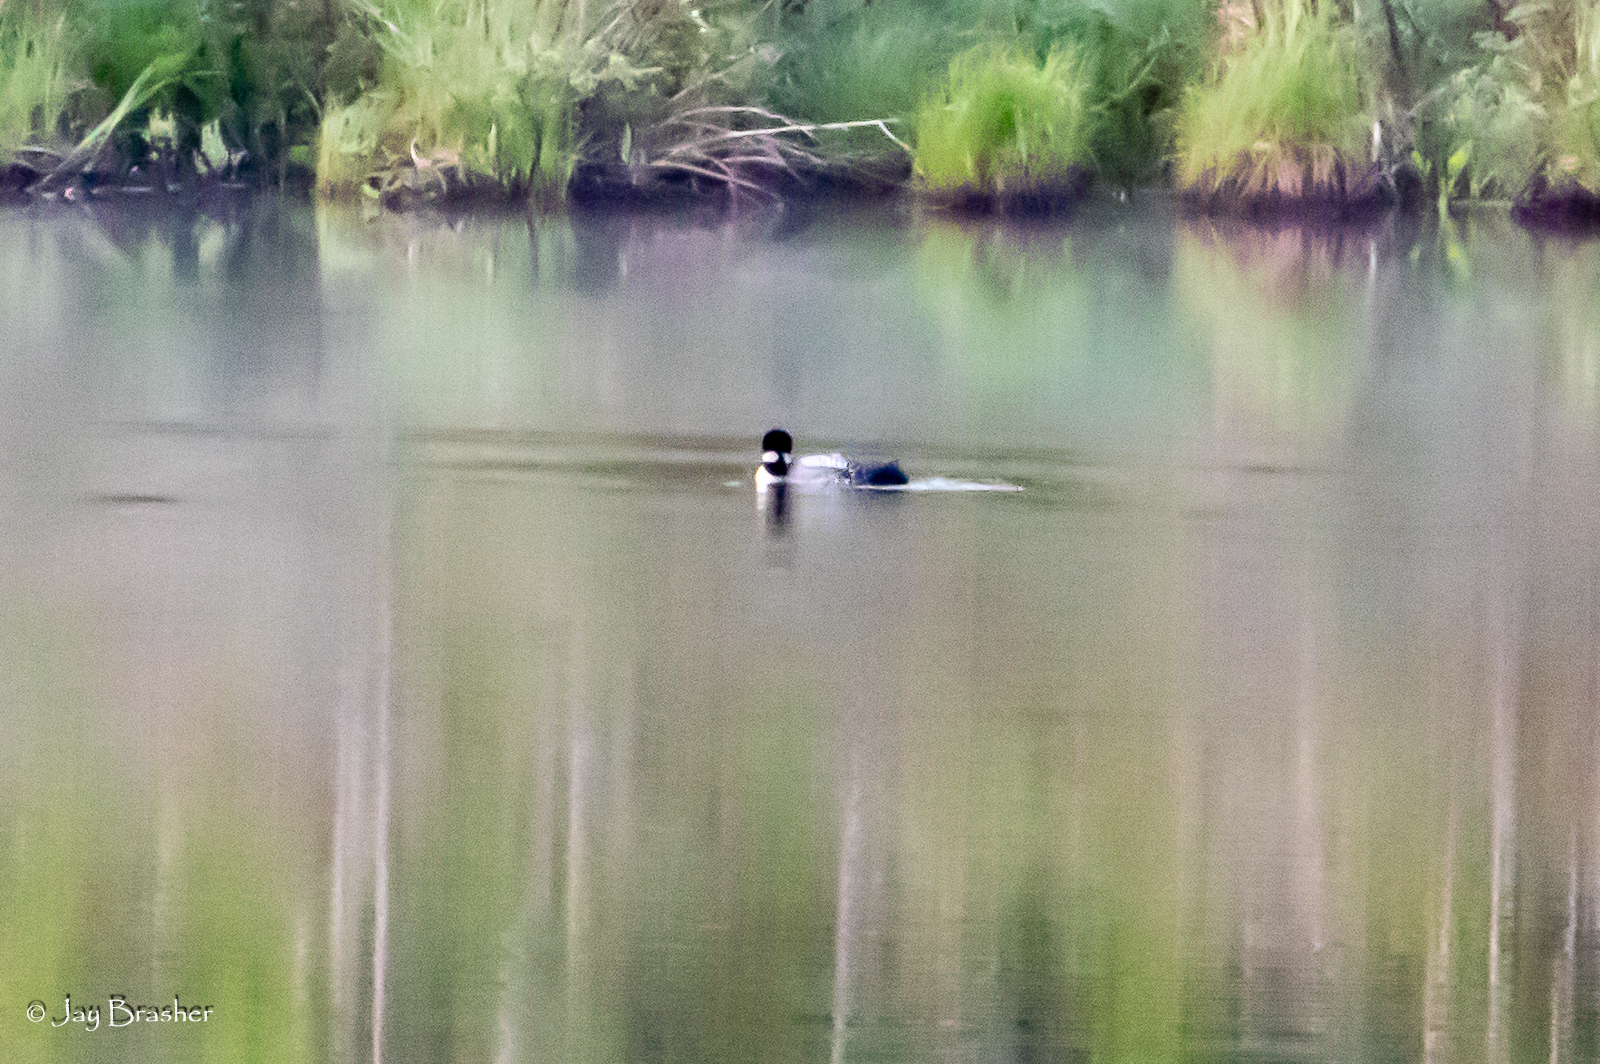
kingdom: Animalia
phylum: Chordata
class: Aves
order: Gaviiformes
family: Gaviidae
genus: Gavia
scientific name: Gavia immer
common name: Common loon
